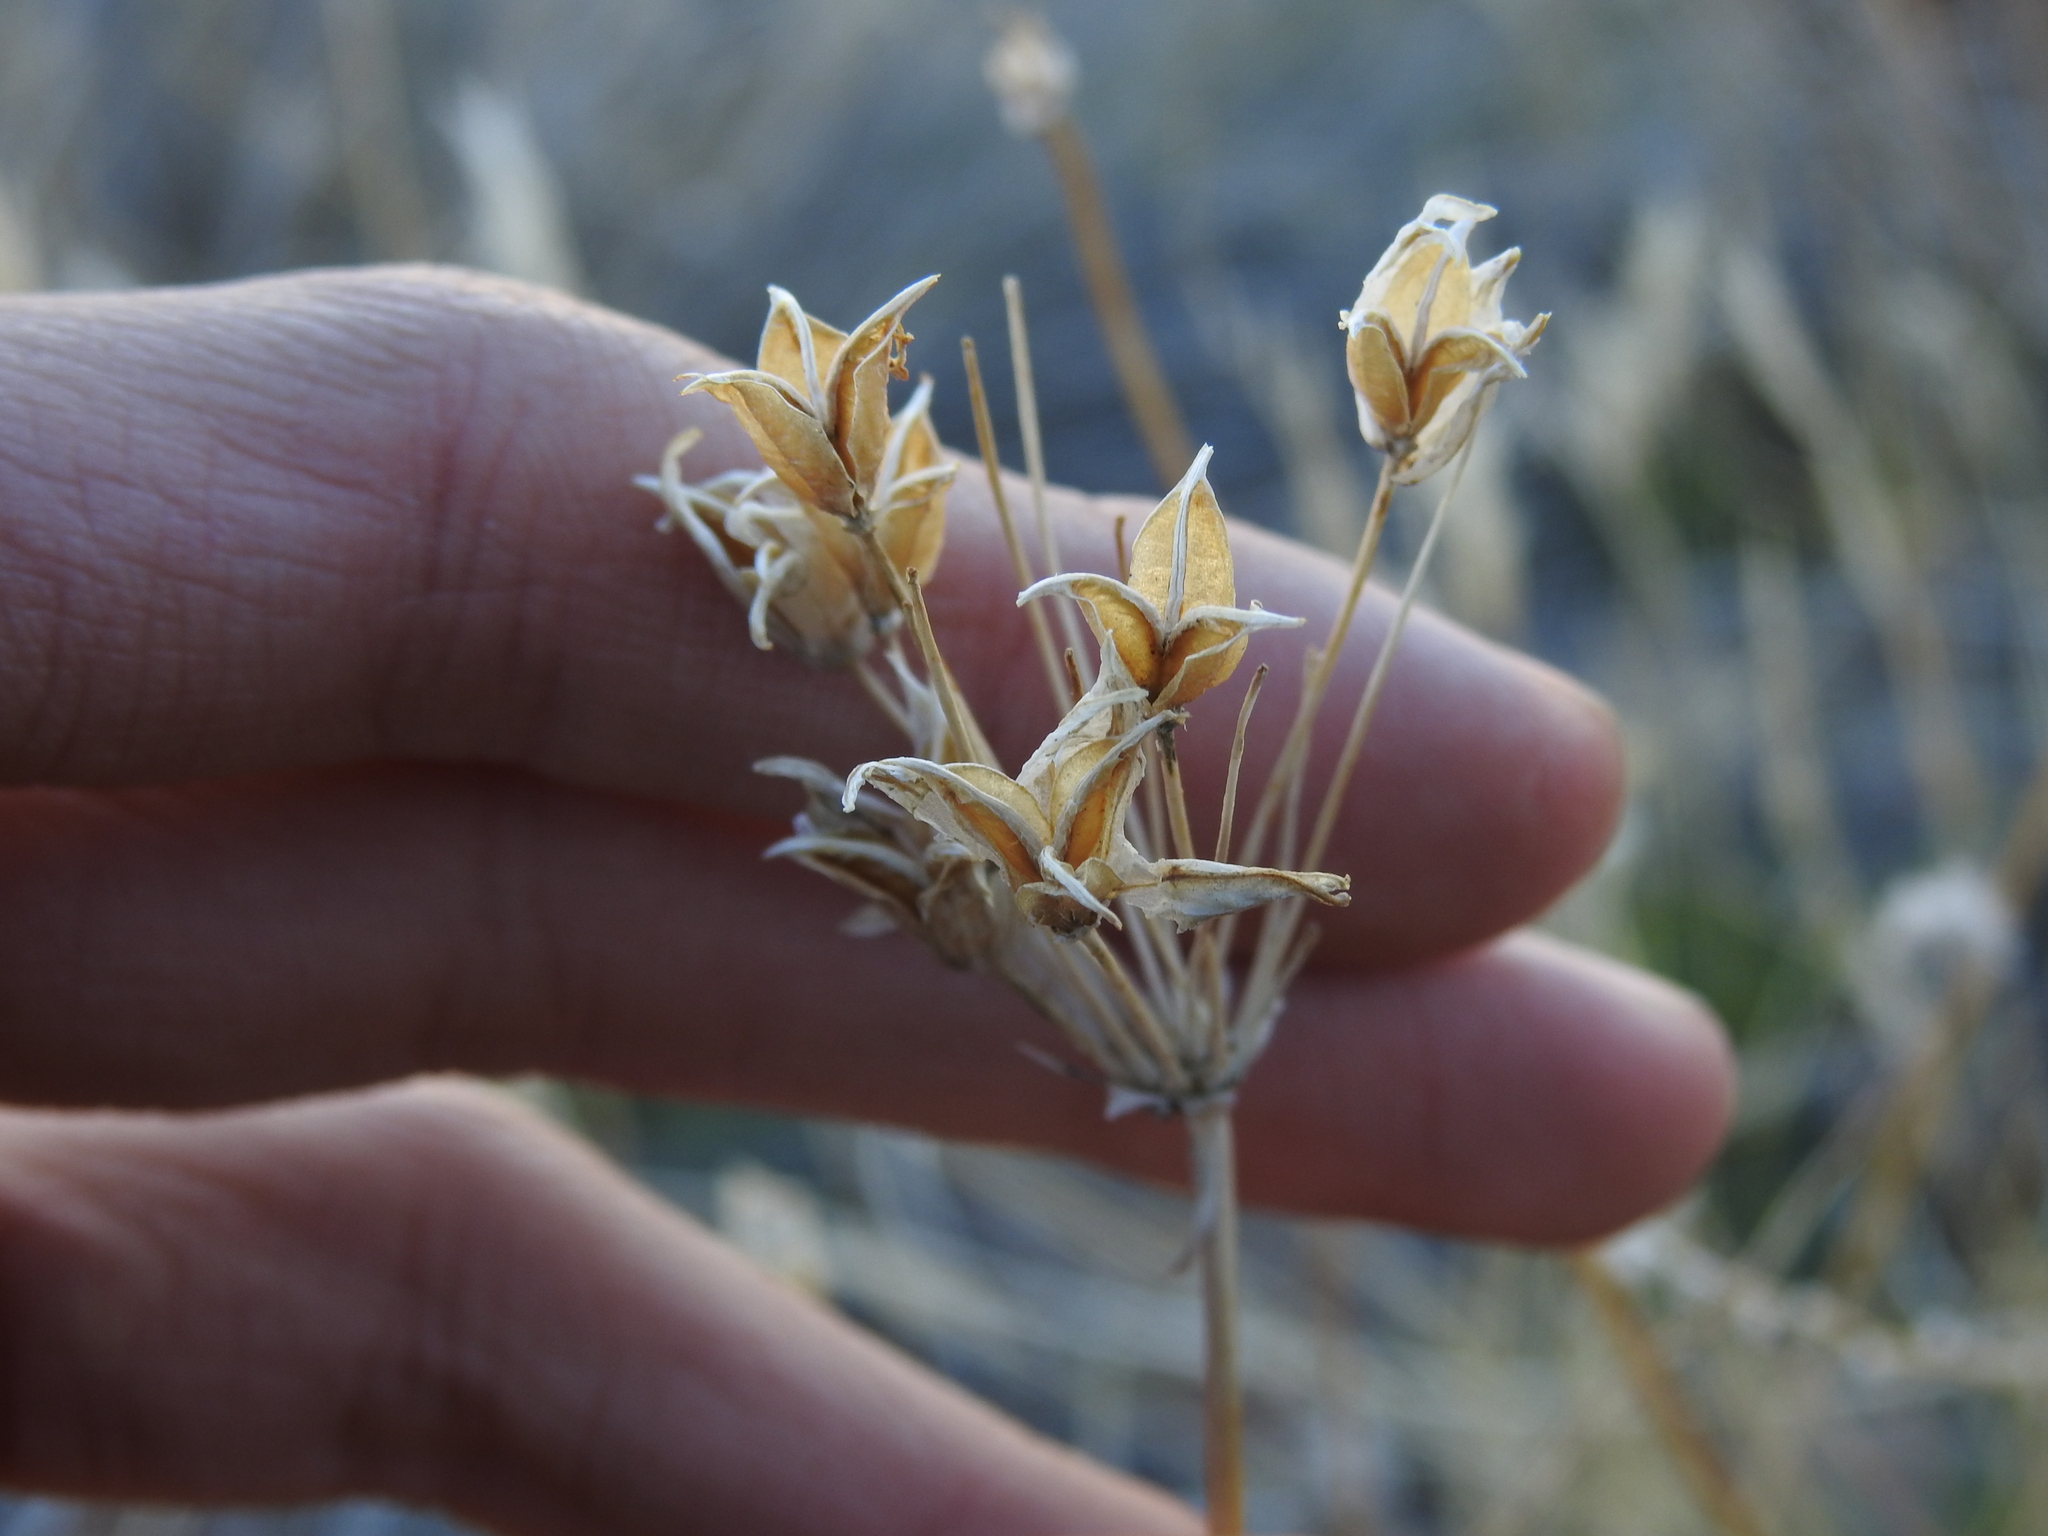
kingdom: Plantae
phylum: Tracheophyta
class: Liliopsida
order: Asparagales
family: Asparagaceae
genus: Dipterostemon
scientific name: Dipterostemon capitatus
